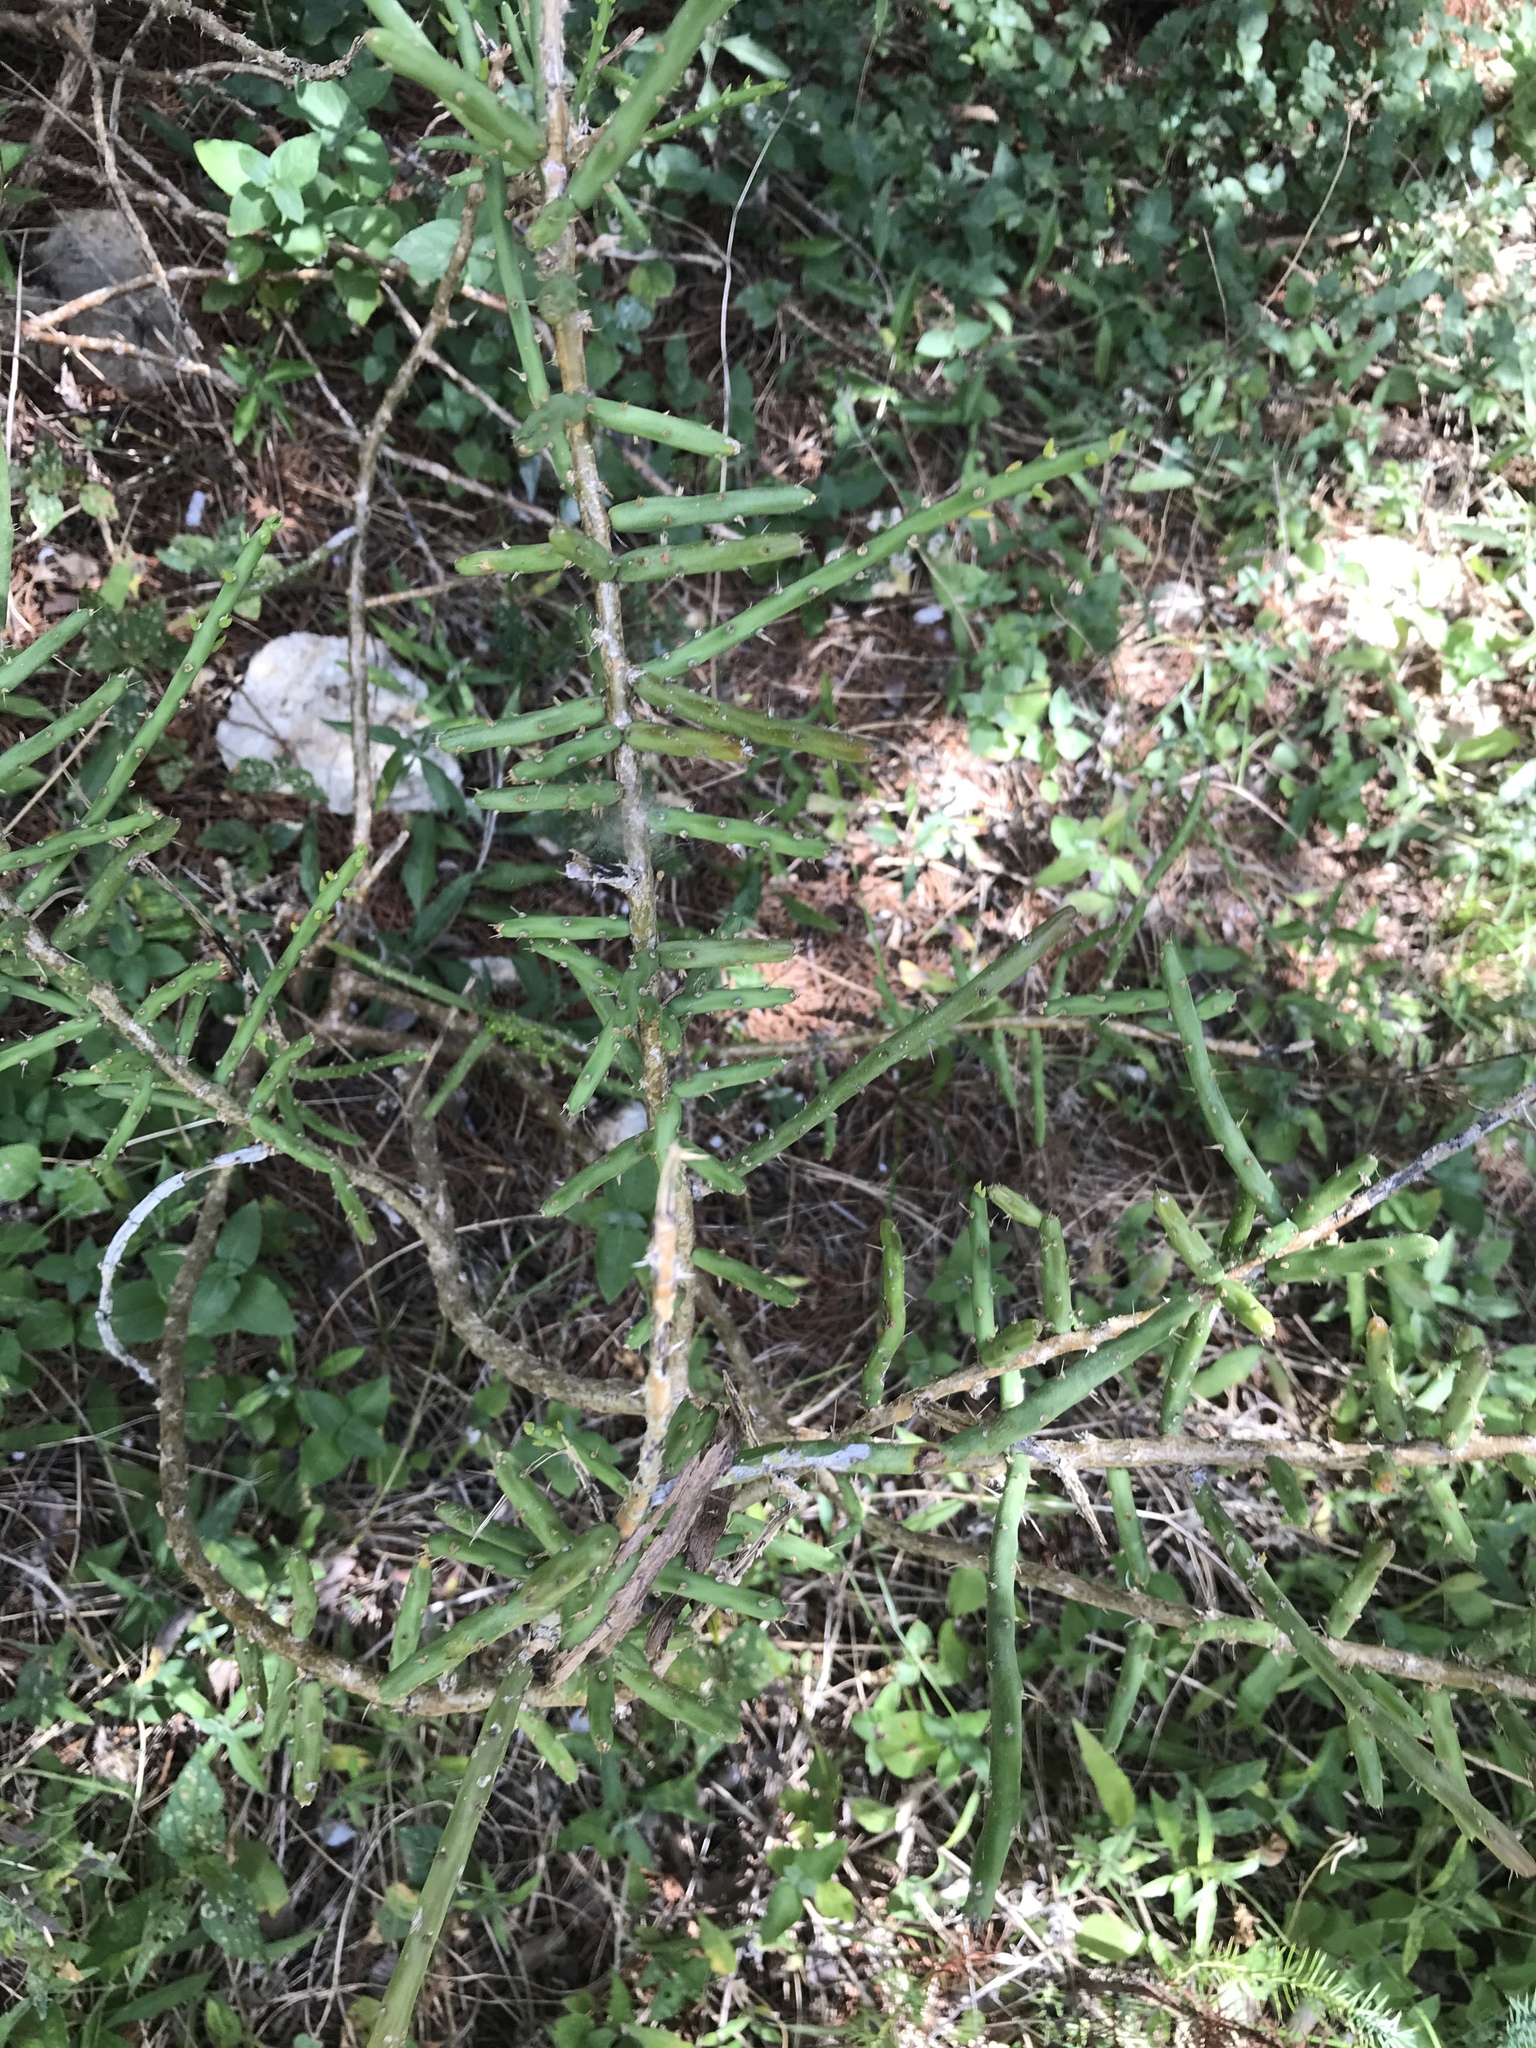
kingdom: Plantae
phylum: Tracheophyta
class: Magnoliopsida
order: Caryophyllales
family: Cactaceae
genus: Cylindropuntia
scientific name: Cylindropuntia leptocaulis
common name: Christmas cactus
